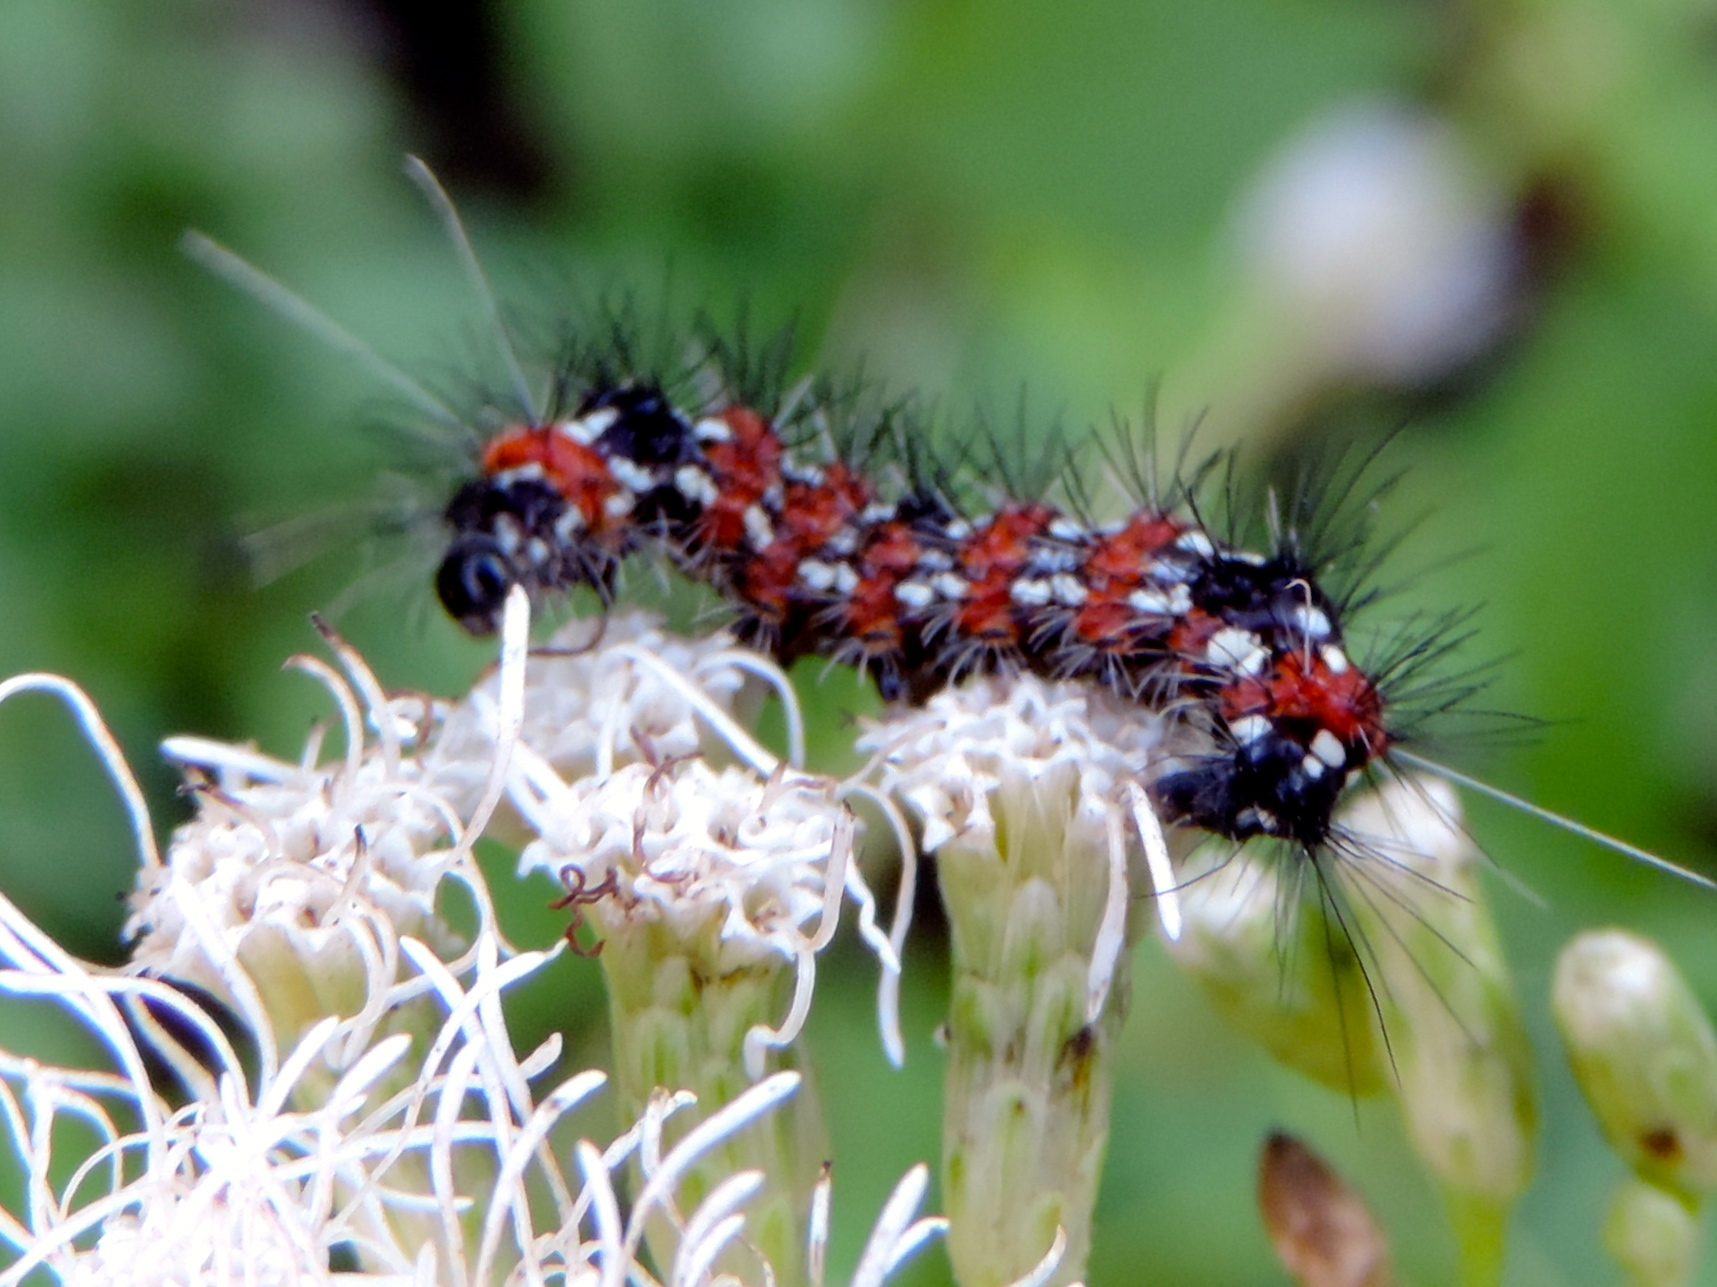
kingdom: Animalia
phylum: Arthropoda
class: Insecta
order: Lepidoptera
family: Erebidae
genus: Dysschema
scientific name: Dysschema howardi
